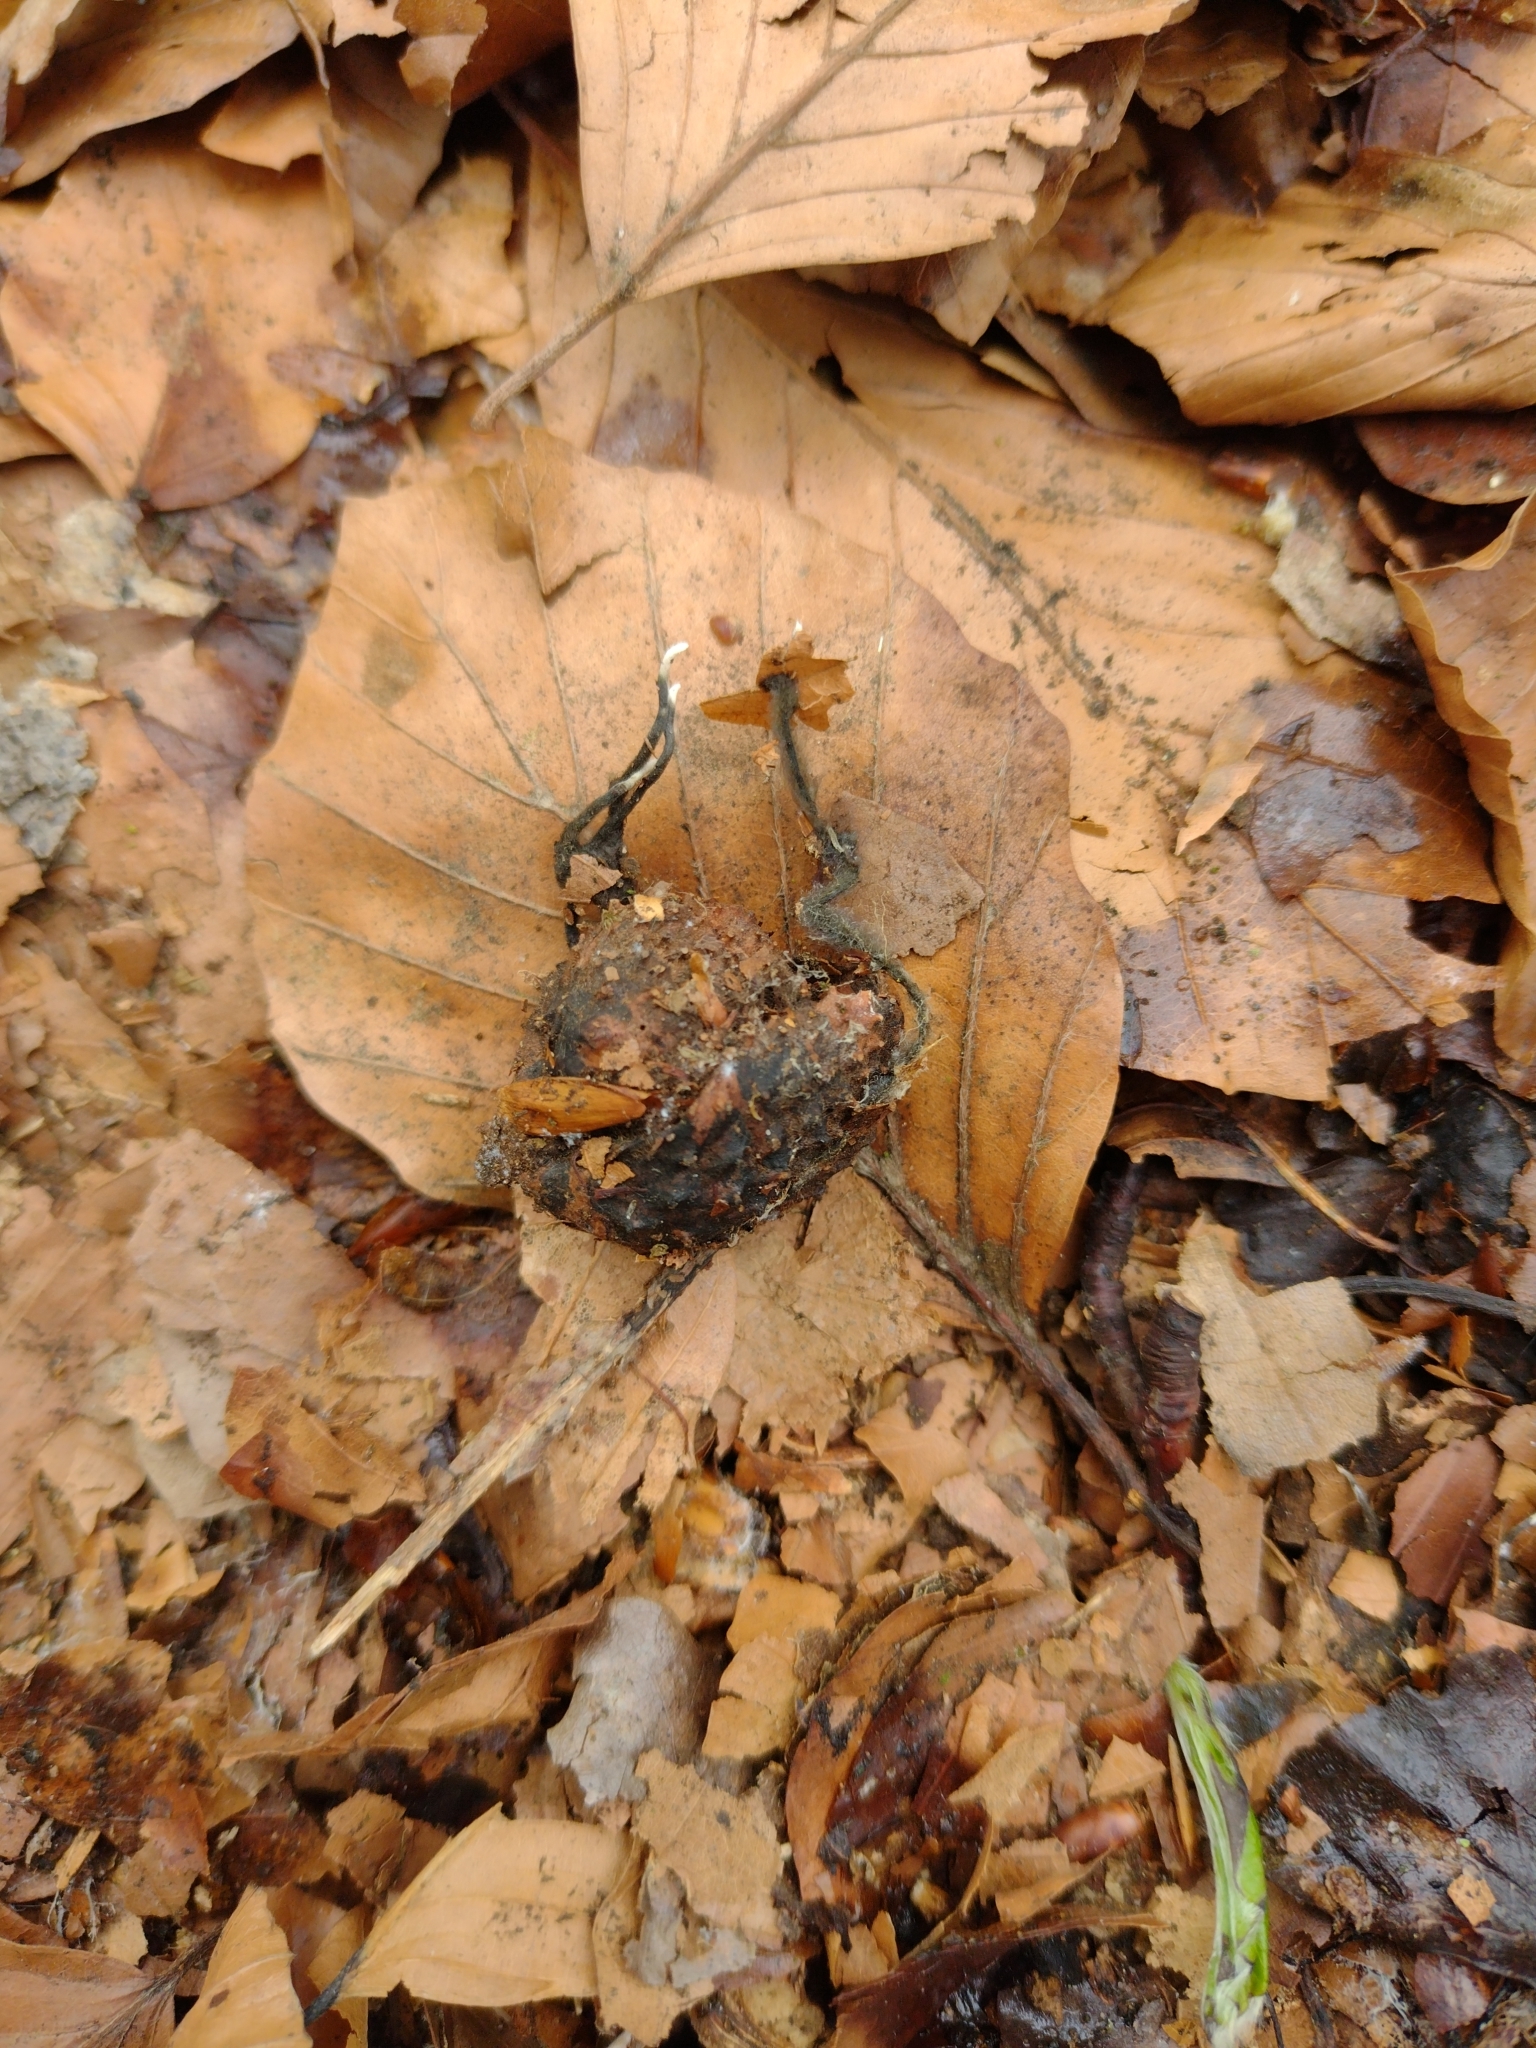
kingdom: Fungi
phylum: Ascomycota
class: Sordariomycetes
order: Xylariales
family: Xylariaceae
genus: Xylaria
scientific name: Xylaria carpophila
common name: Beechmast candlesnuff
